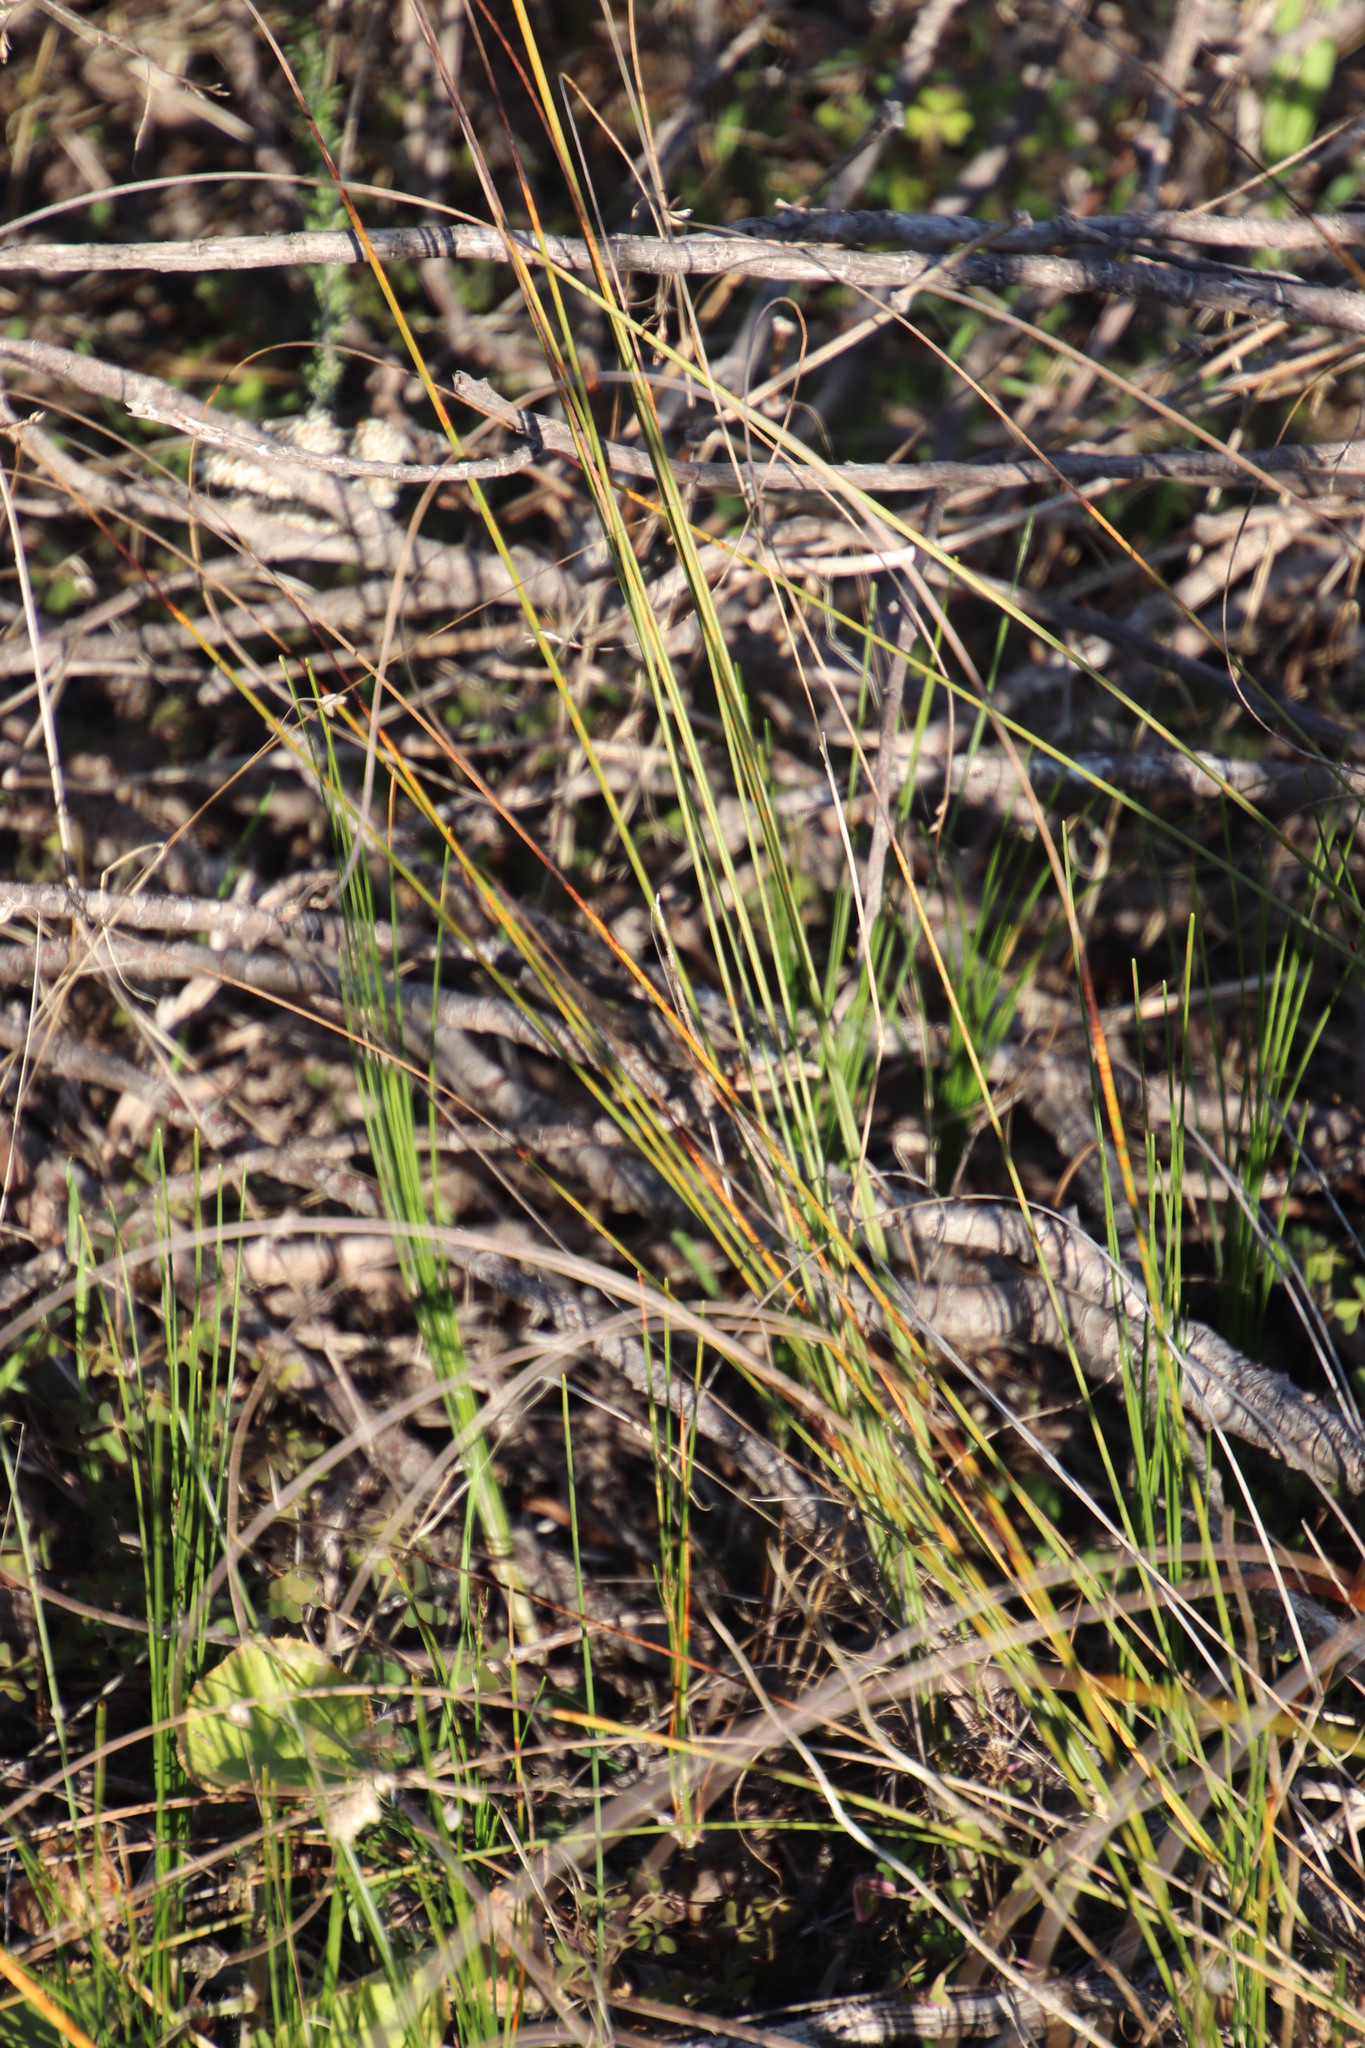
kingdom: Plantae
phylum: Tracheophyta
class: Liliopsida
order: Poales
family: Cyperaceae
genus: Ficinia
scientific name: Ficinia secunda
